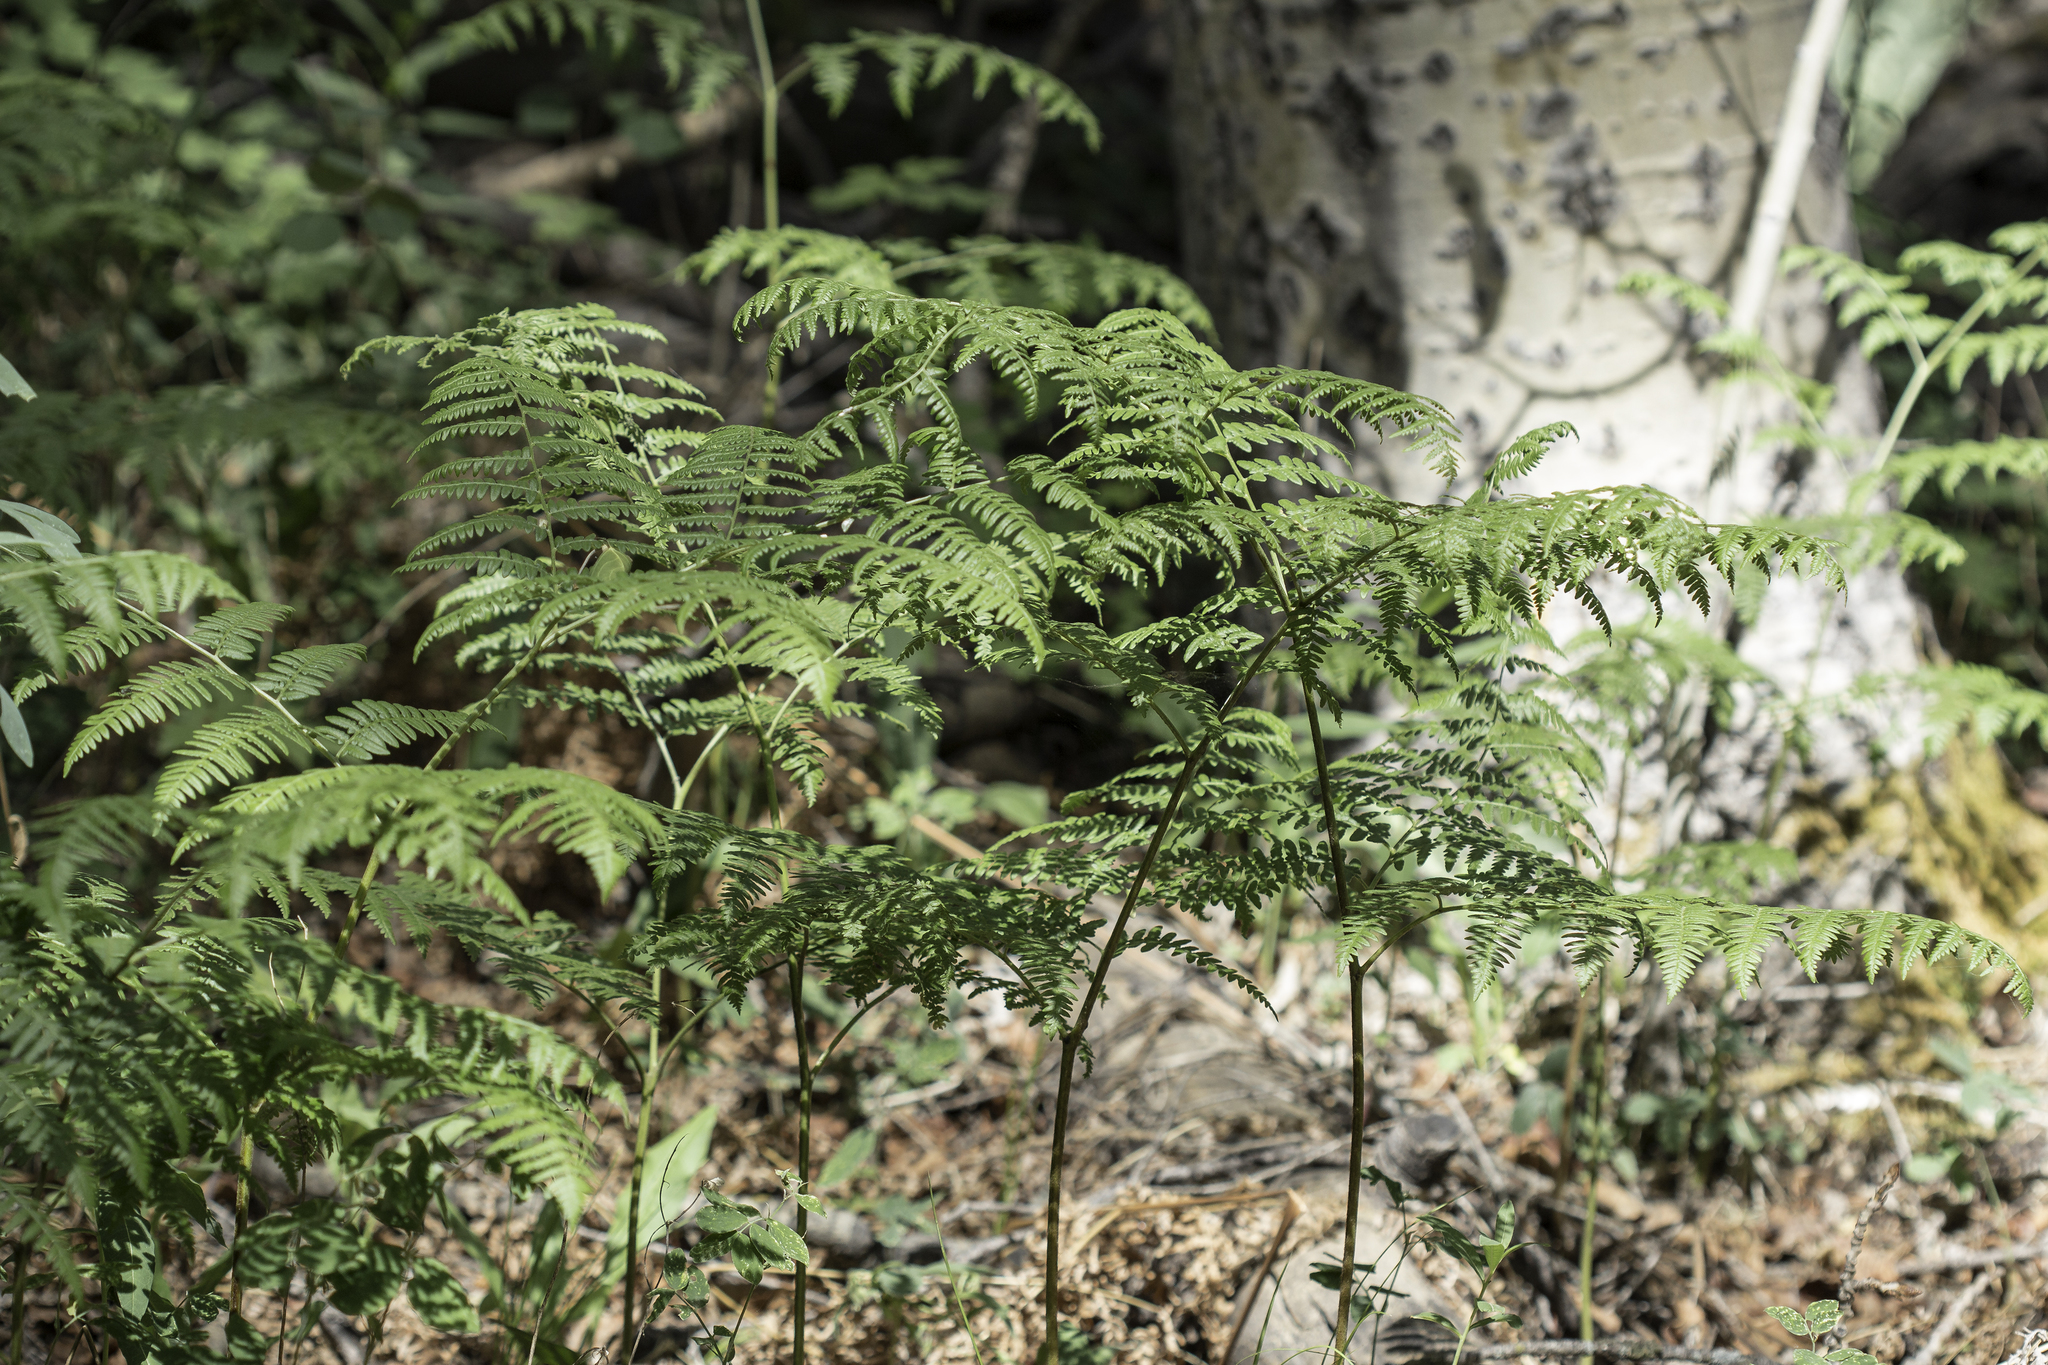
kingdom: Plantae
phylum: Tracheophyta
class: Polypodiopsida
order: Polypodiales
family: Dennstaedtiaceae
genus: Pteridium
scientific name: Pteridium aquilinum
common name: Bracken
